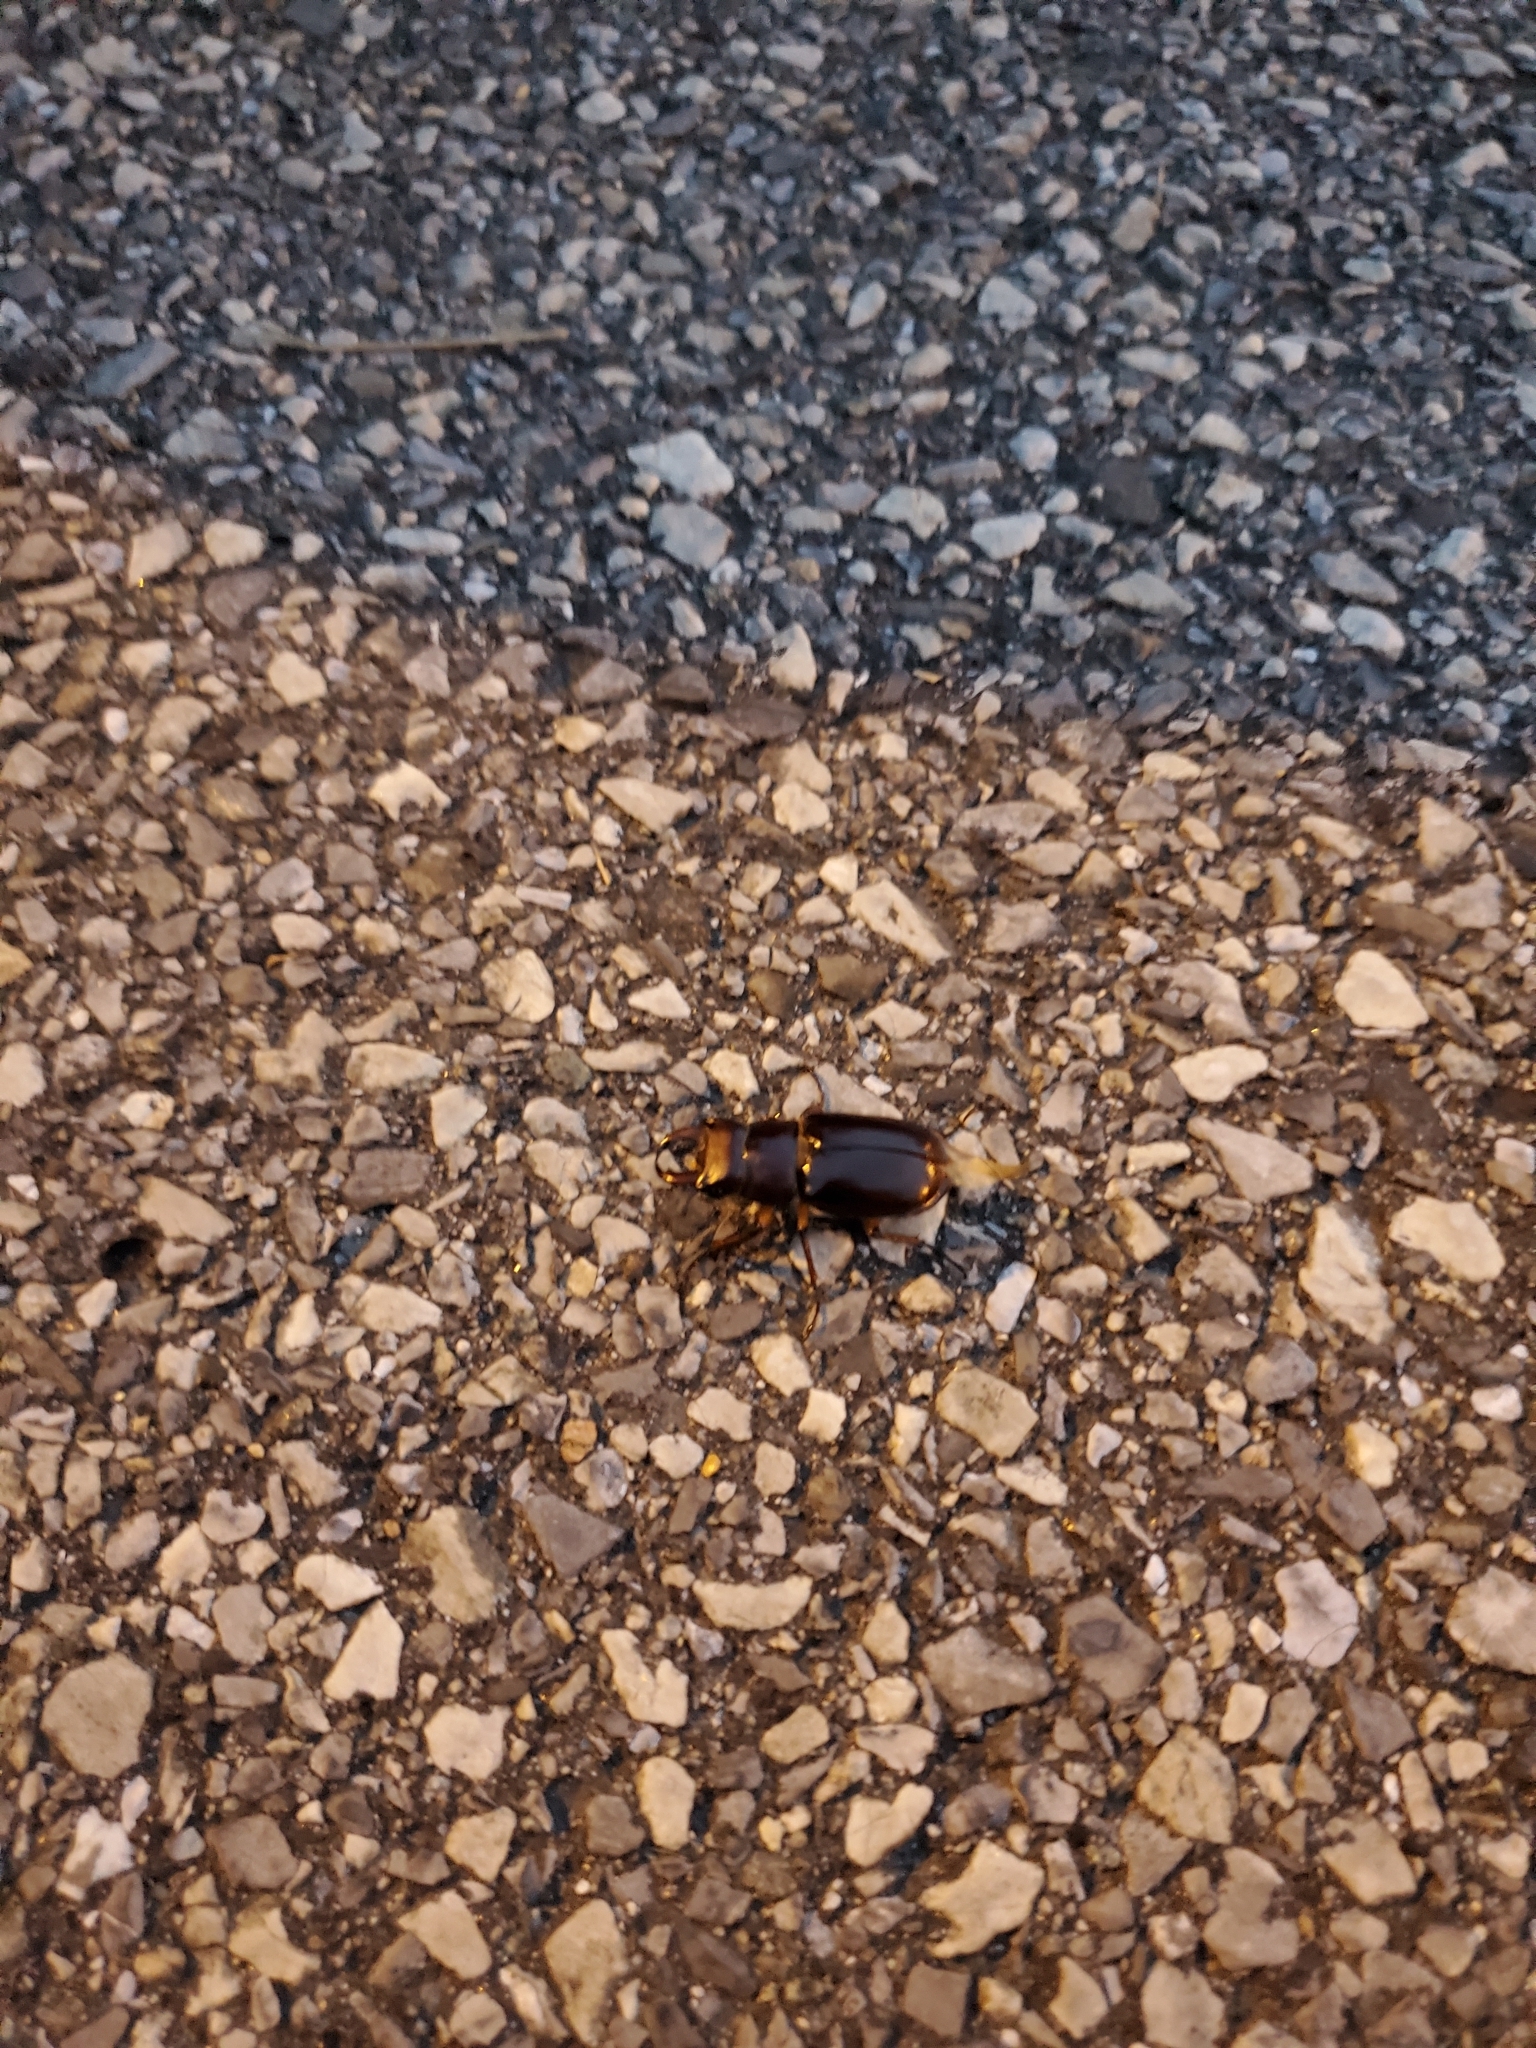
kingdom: Animalia
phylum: Arthropoda
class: Insecta
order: Coleoptera
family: Lucanidae
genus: Lucanus
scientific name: Lucanus capreolus
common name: Stag beetle
